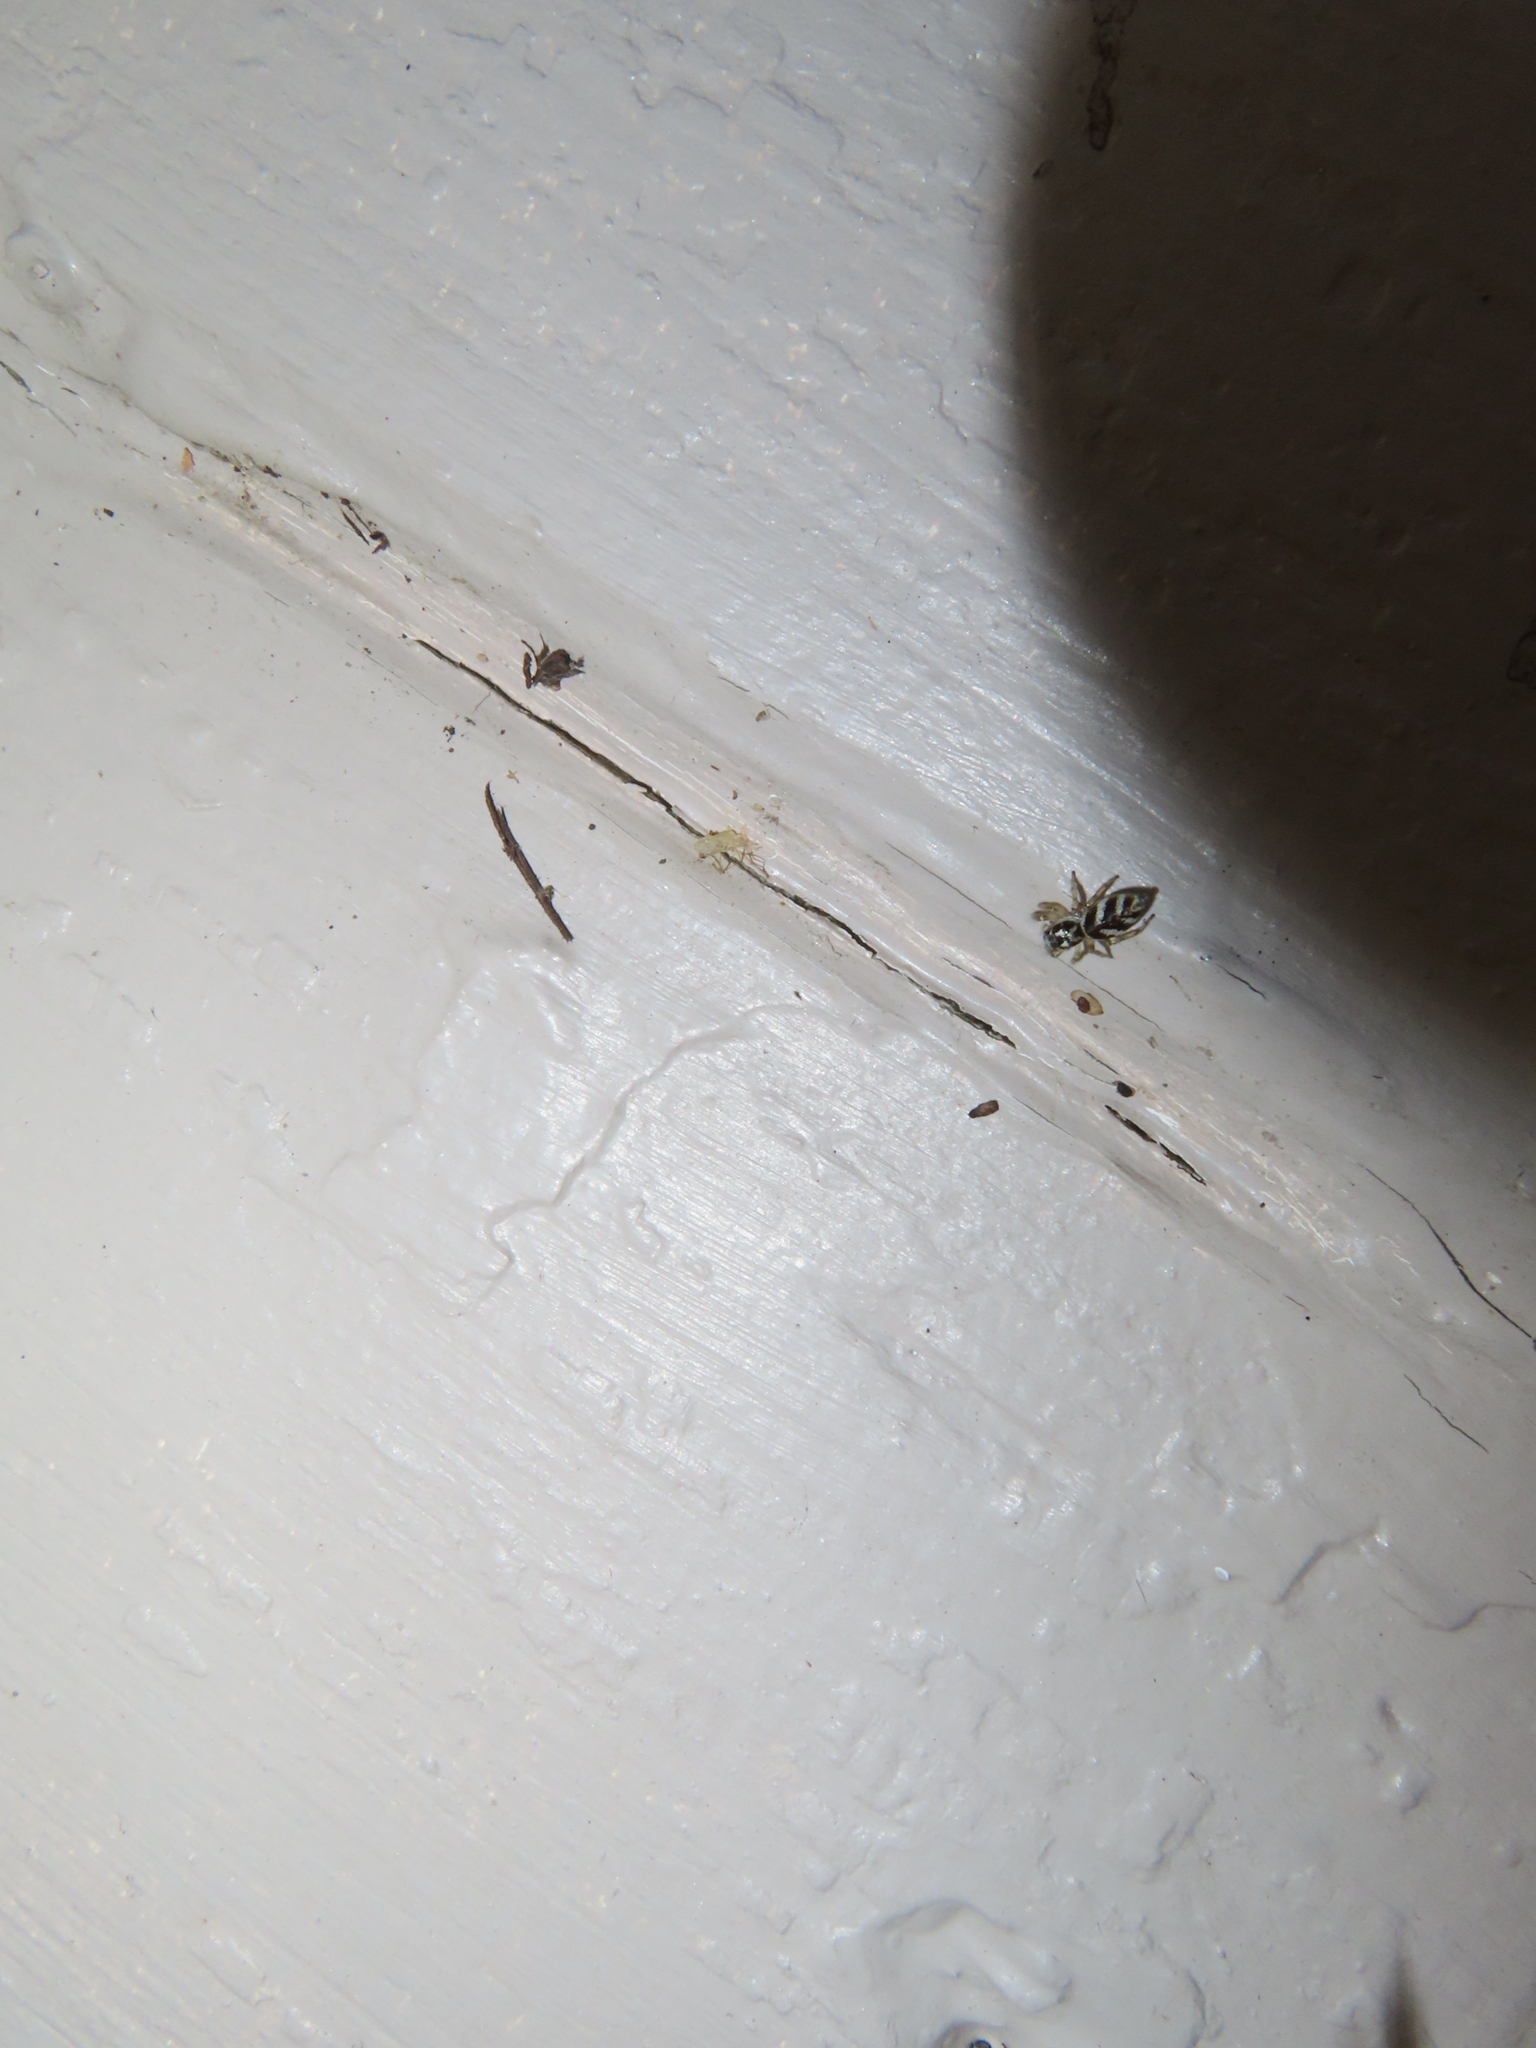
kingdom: Animalia
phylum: Arthropoda
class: Arachnida
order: Araneae
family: Salticidae
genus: Salticus
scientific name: Salticus scenicus
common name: Zebra jumper
